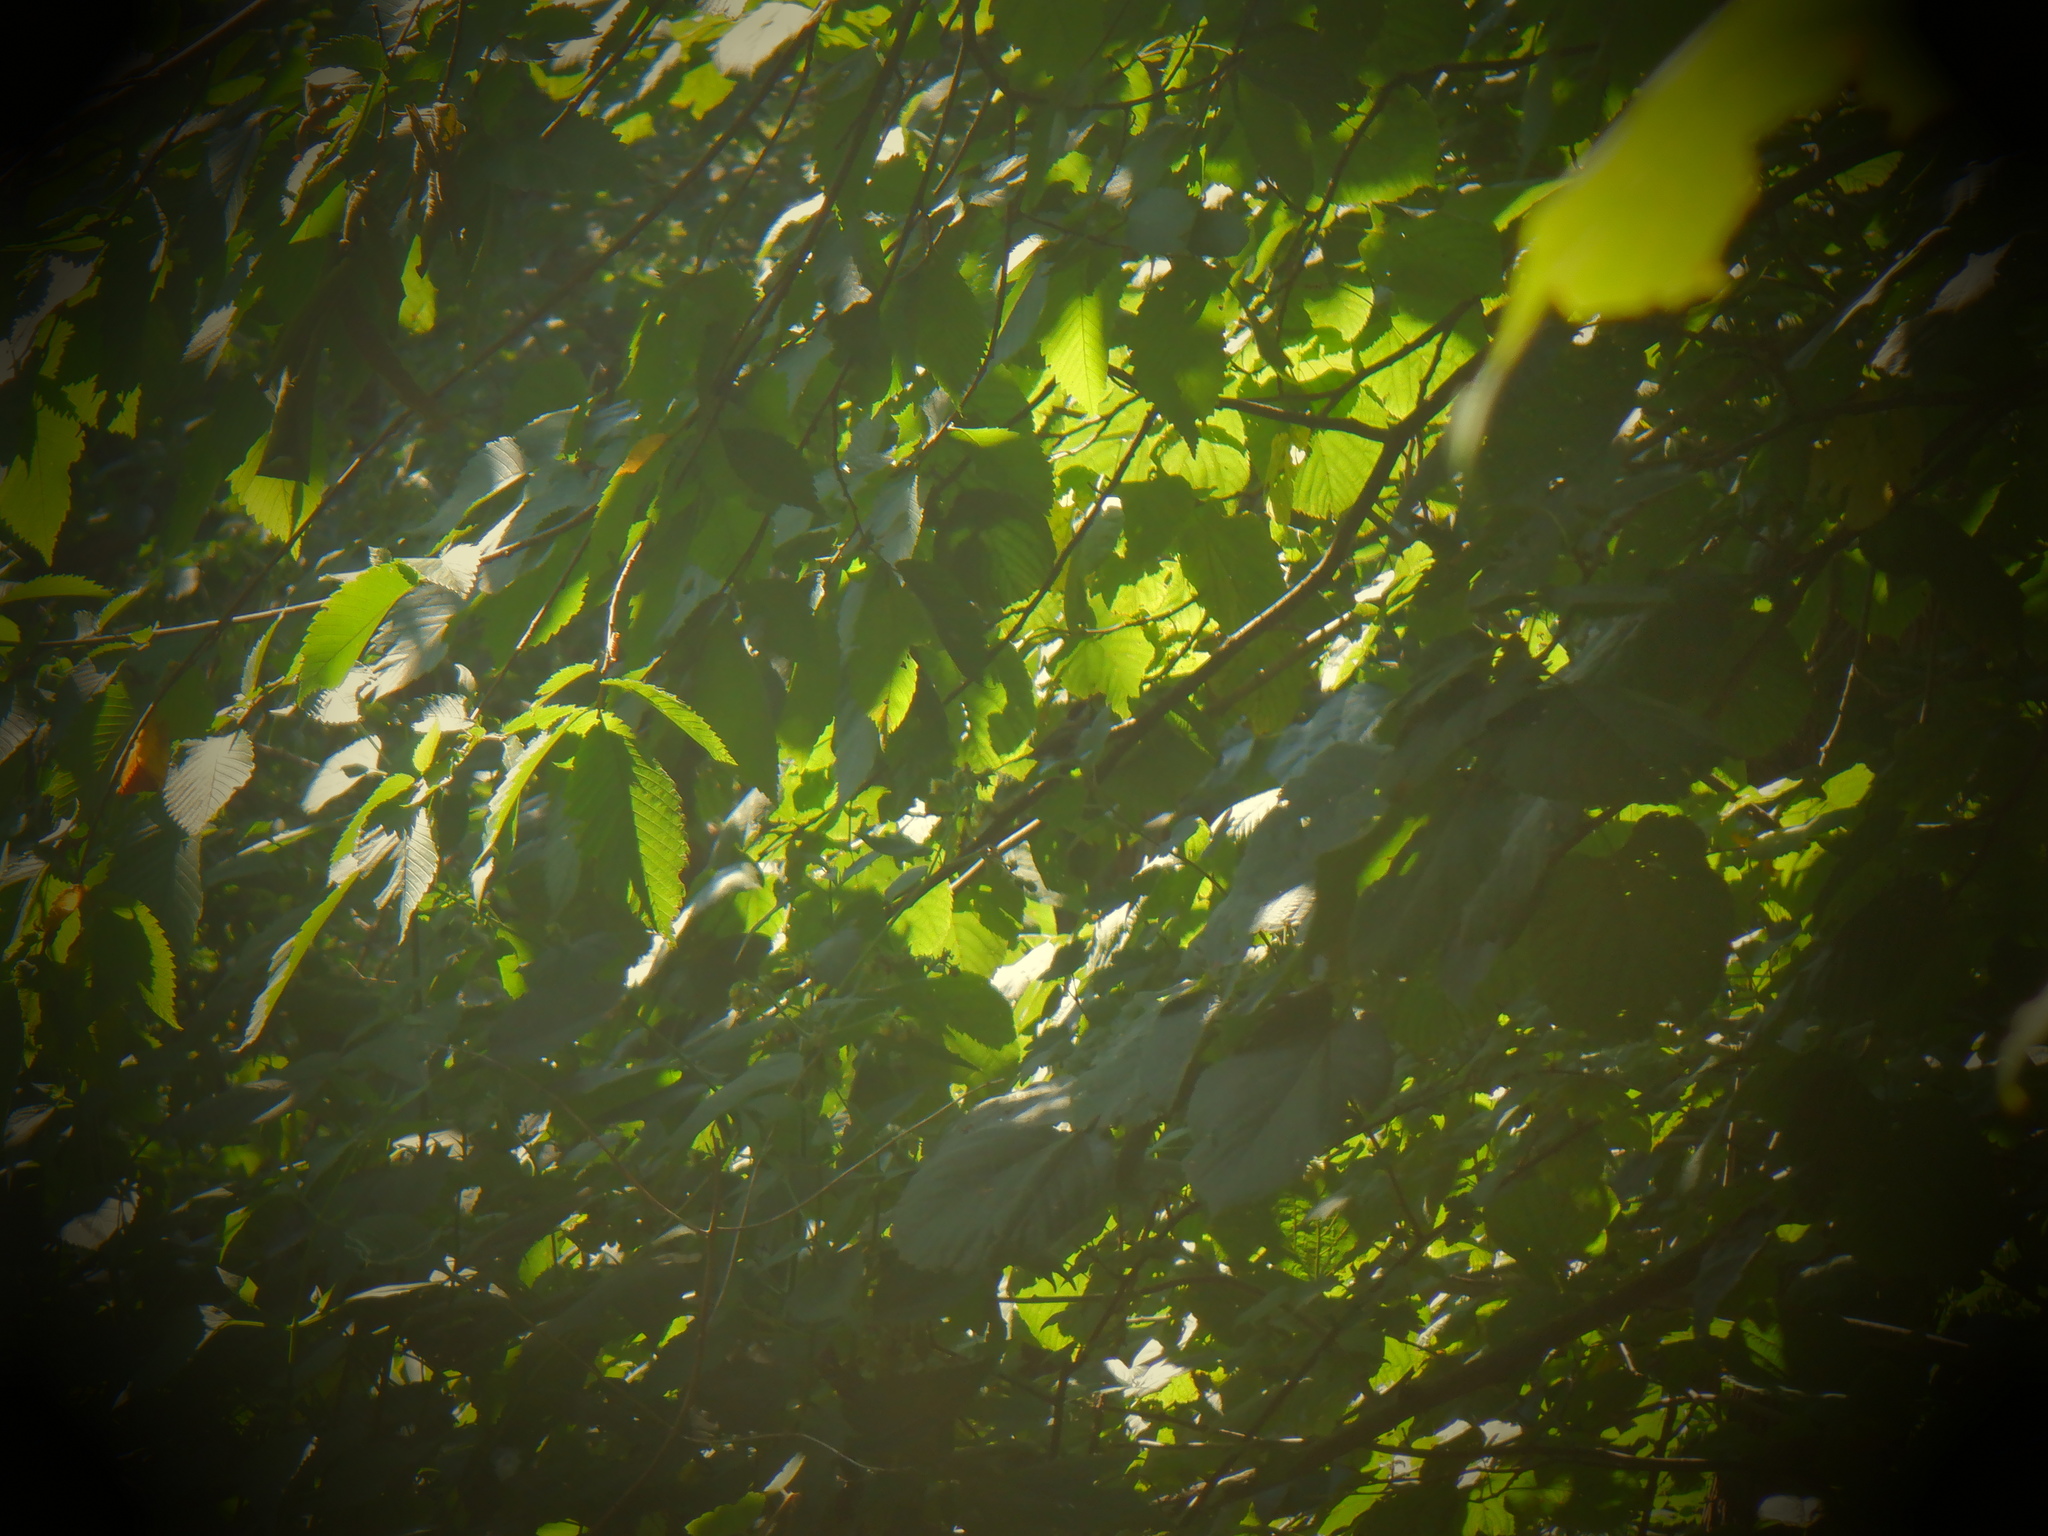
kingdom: Plantae
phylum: Tracheophyta
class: Magnoliopsida
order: Rosales
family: Ulmaceae
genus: Ulmus
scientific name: Ulmus americana
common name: American elm
